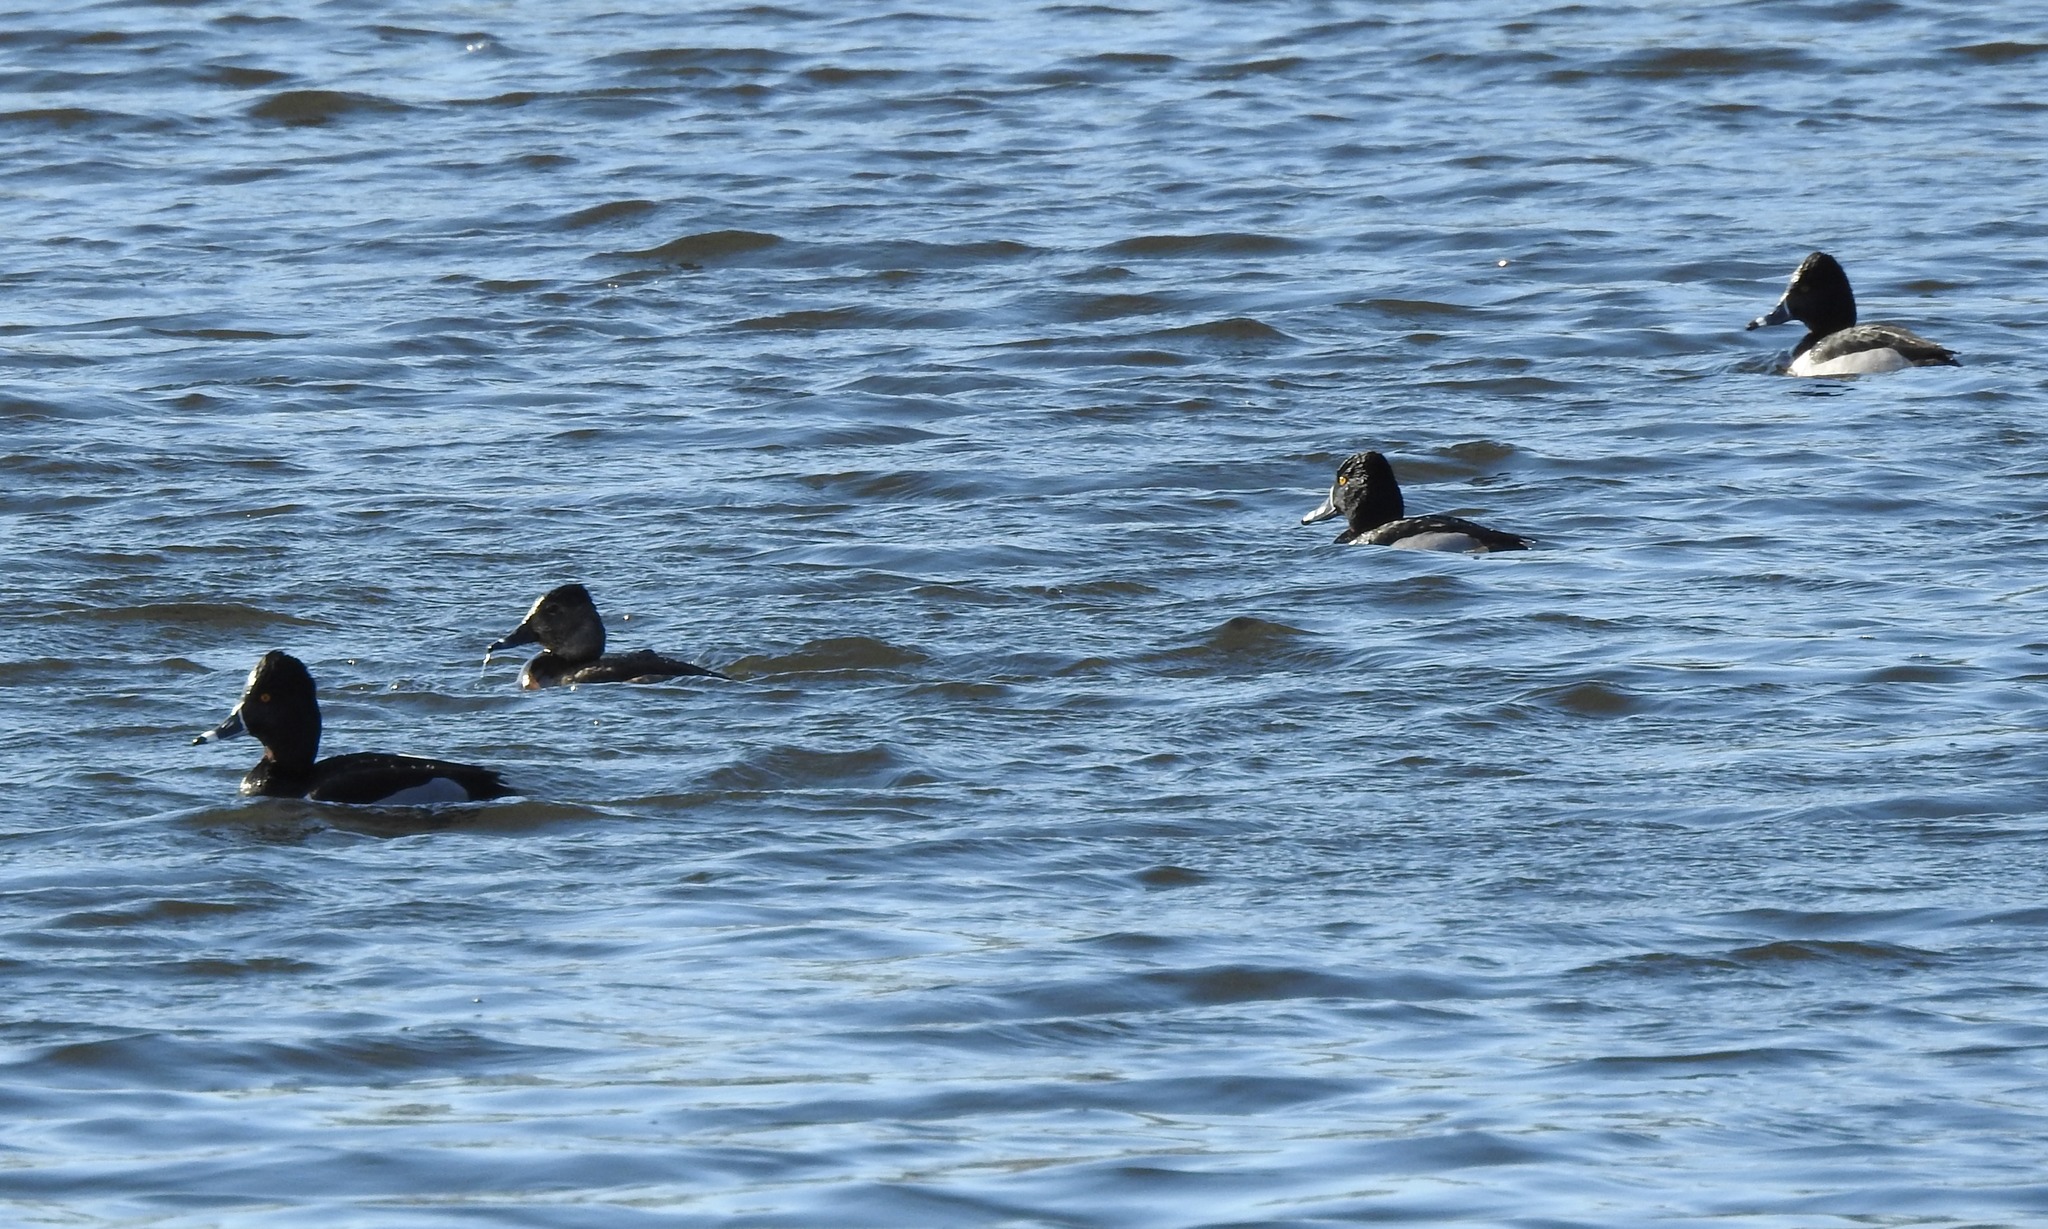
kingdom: Animalia
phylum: Chordata
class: Aves
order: Anseriformes
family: Anatidae
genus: Aythya
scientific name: Aythya collaris
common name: Ring-necked duck
